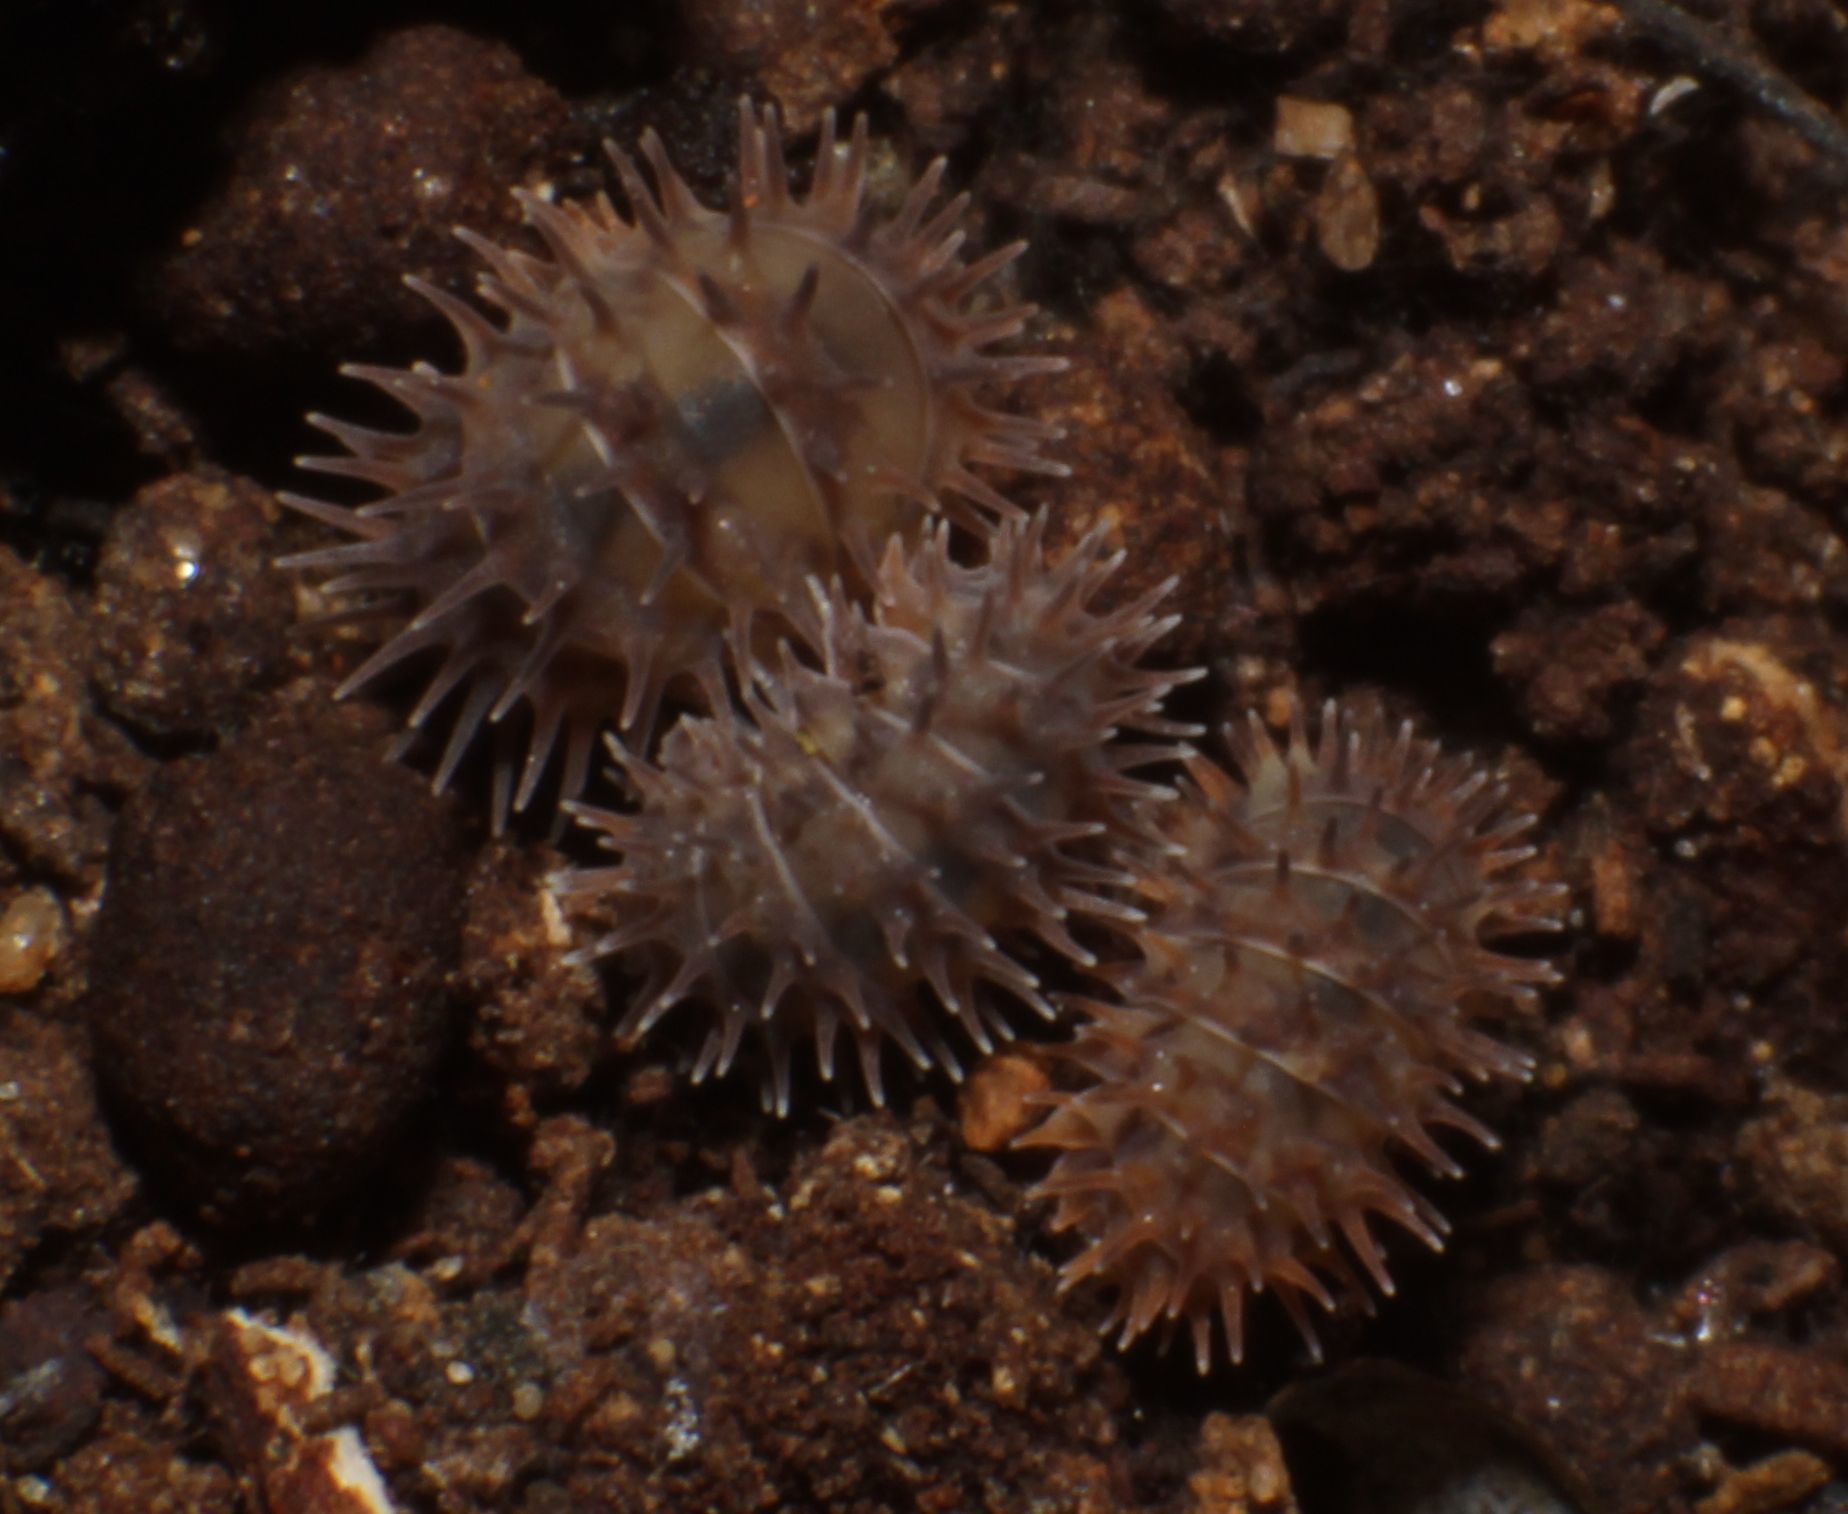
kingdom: Animalia
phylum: Arthropoda
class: Malacostraca
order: Isopoda
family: Armadillidae
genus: Pseudolaureola
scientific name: Pseudolaureola wilsmorei
